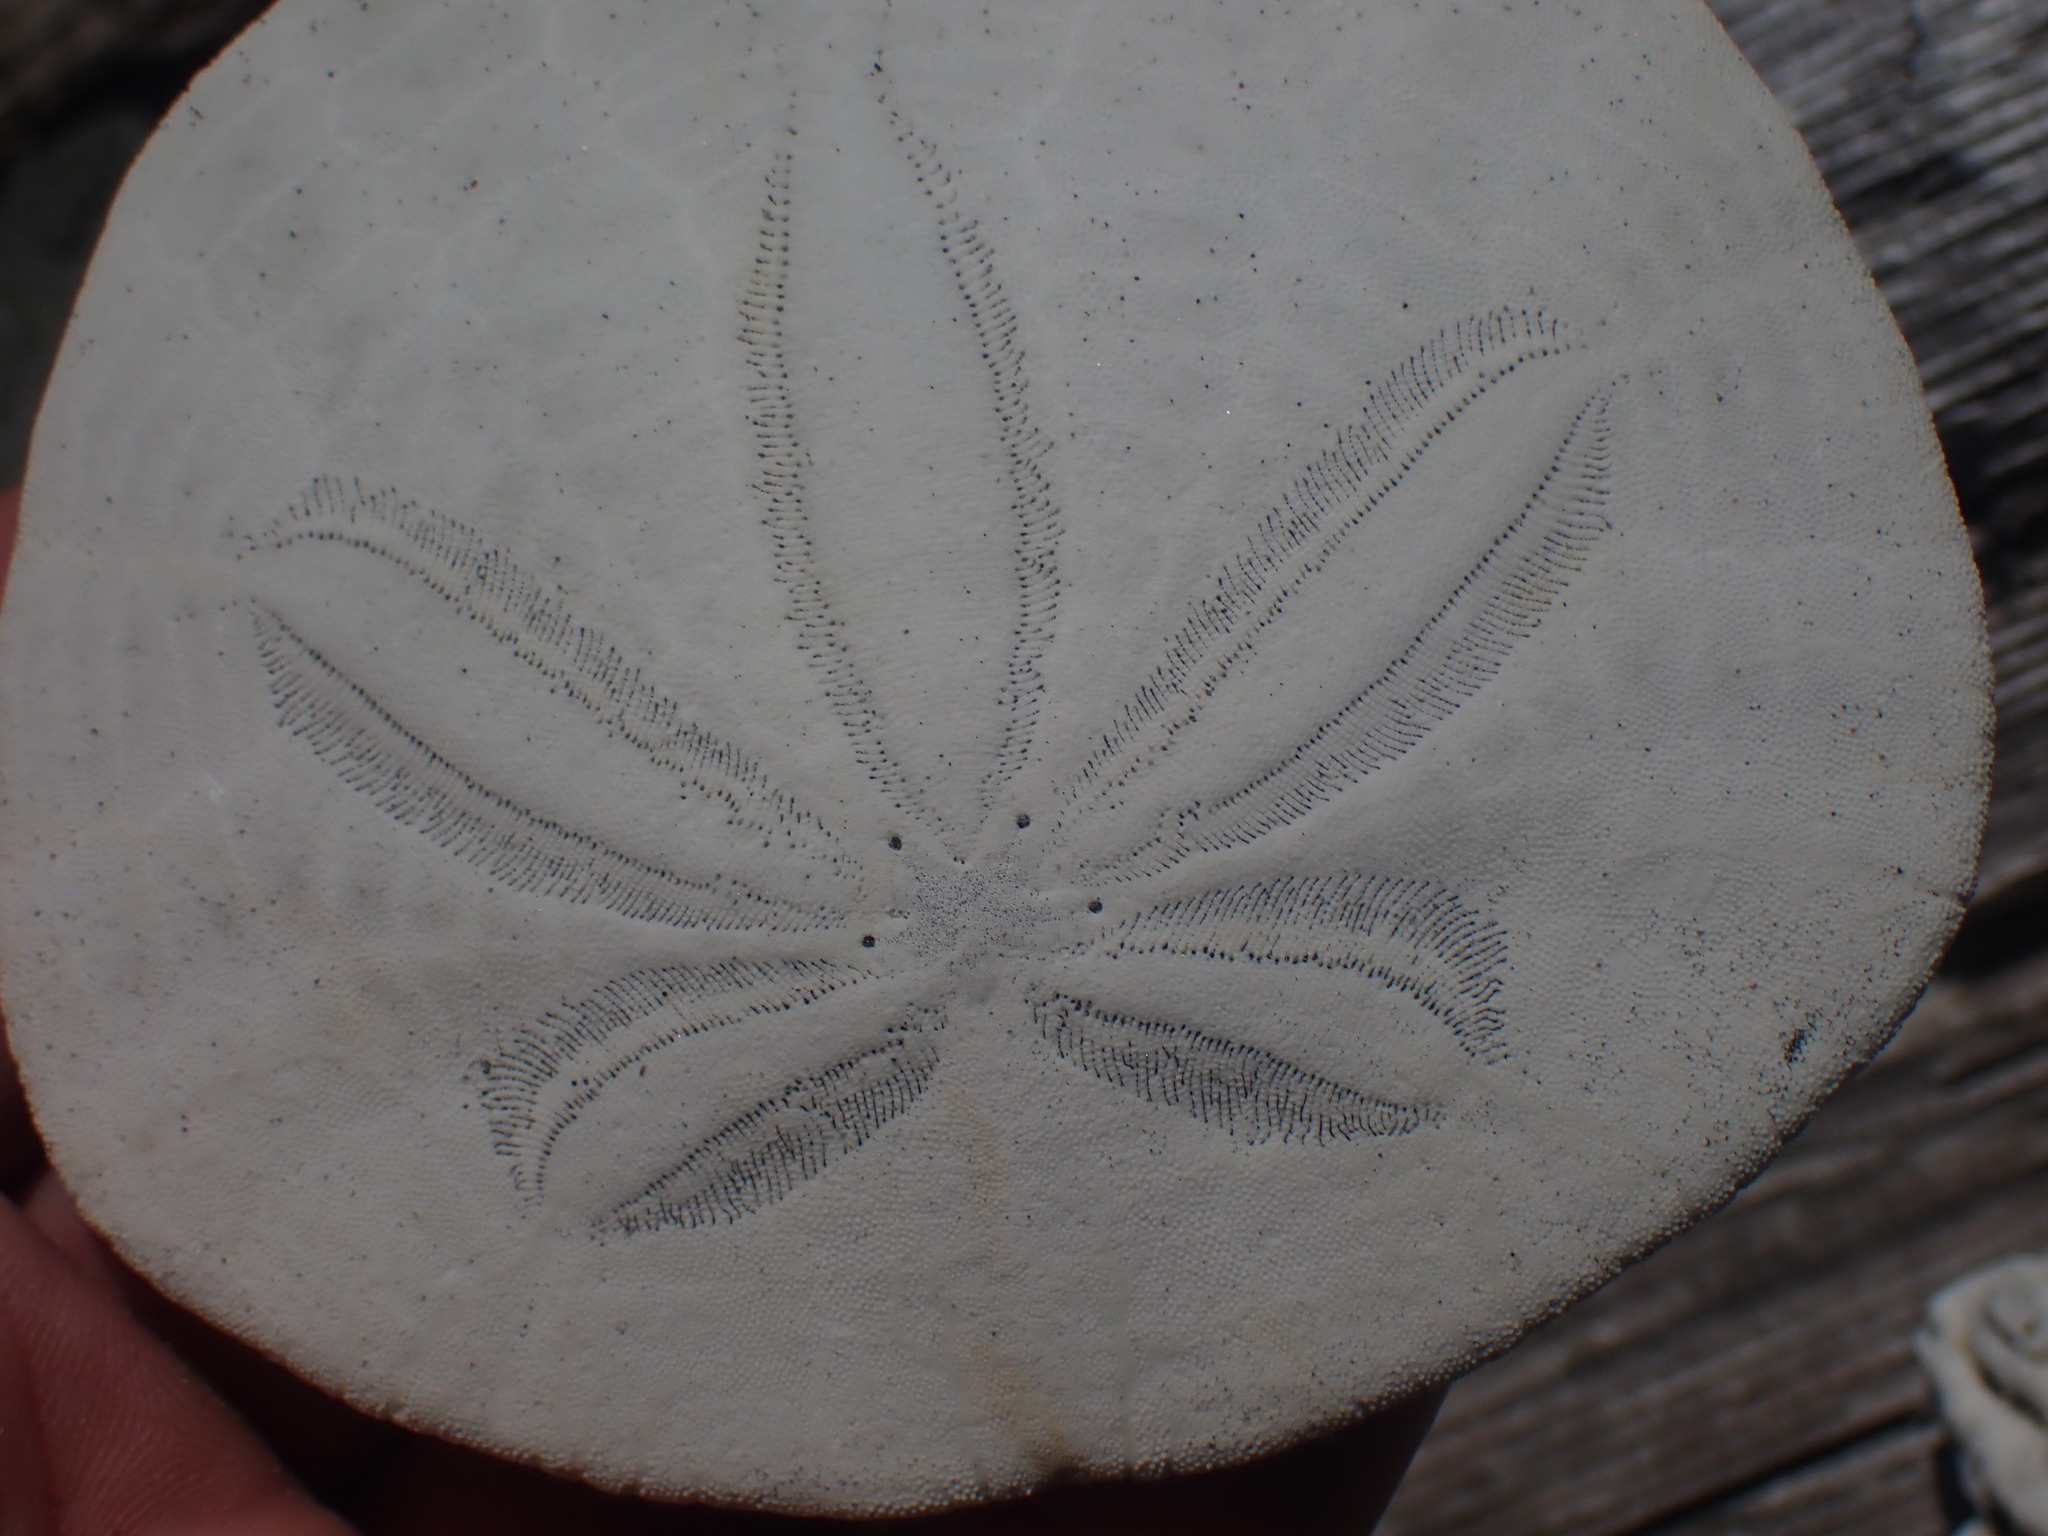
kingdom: Animalia
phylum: Echinodermata
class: Echinoidea
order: Echinolampadacea
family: Dendrasteridae
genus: Dendraster
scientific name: Dendraster excentricus
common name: Eccentric sand dollar sea urchin
